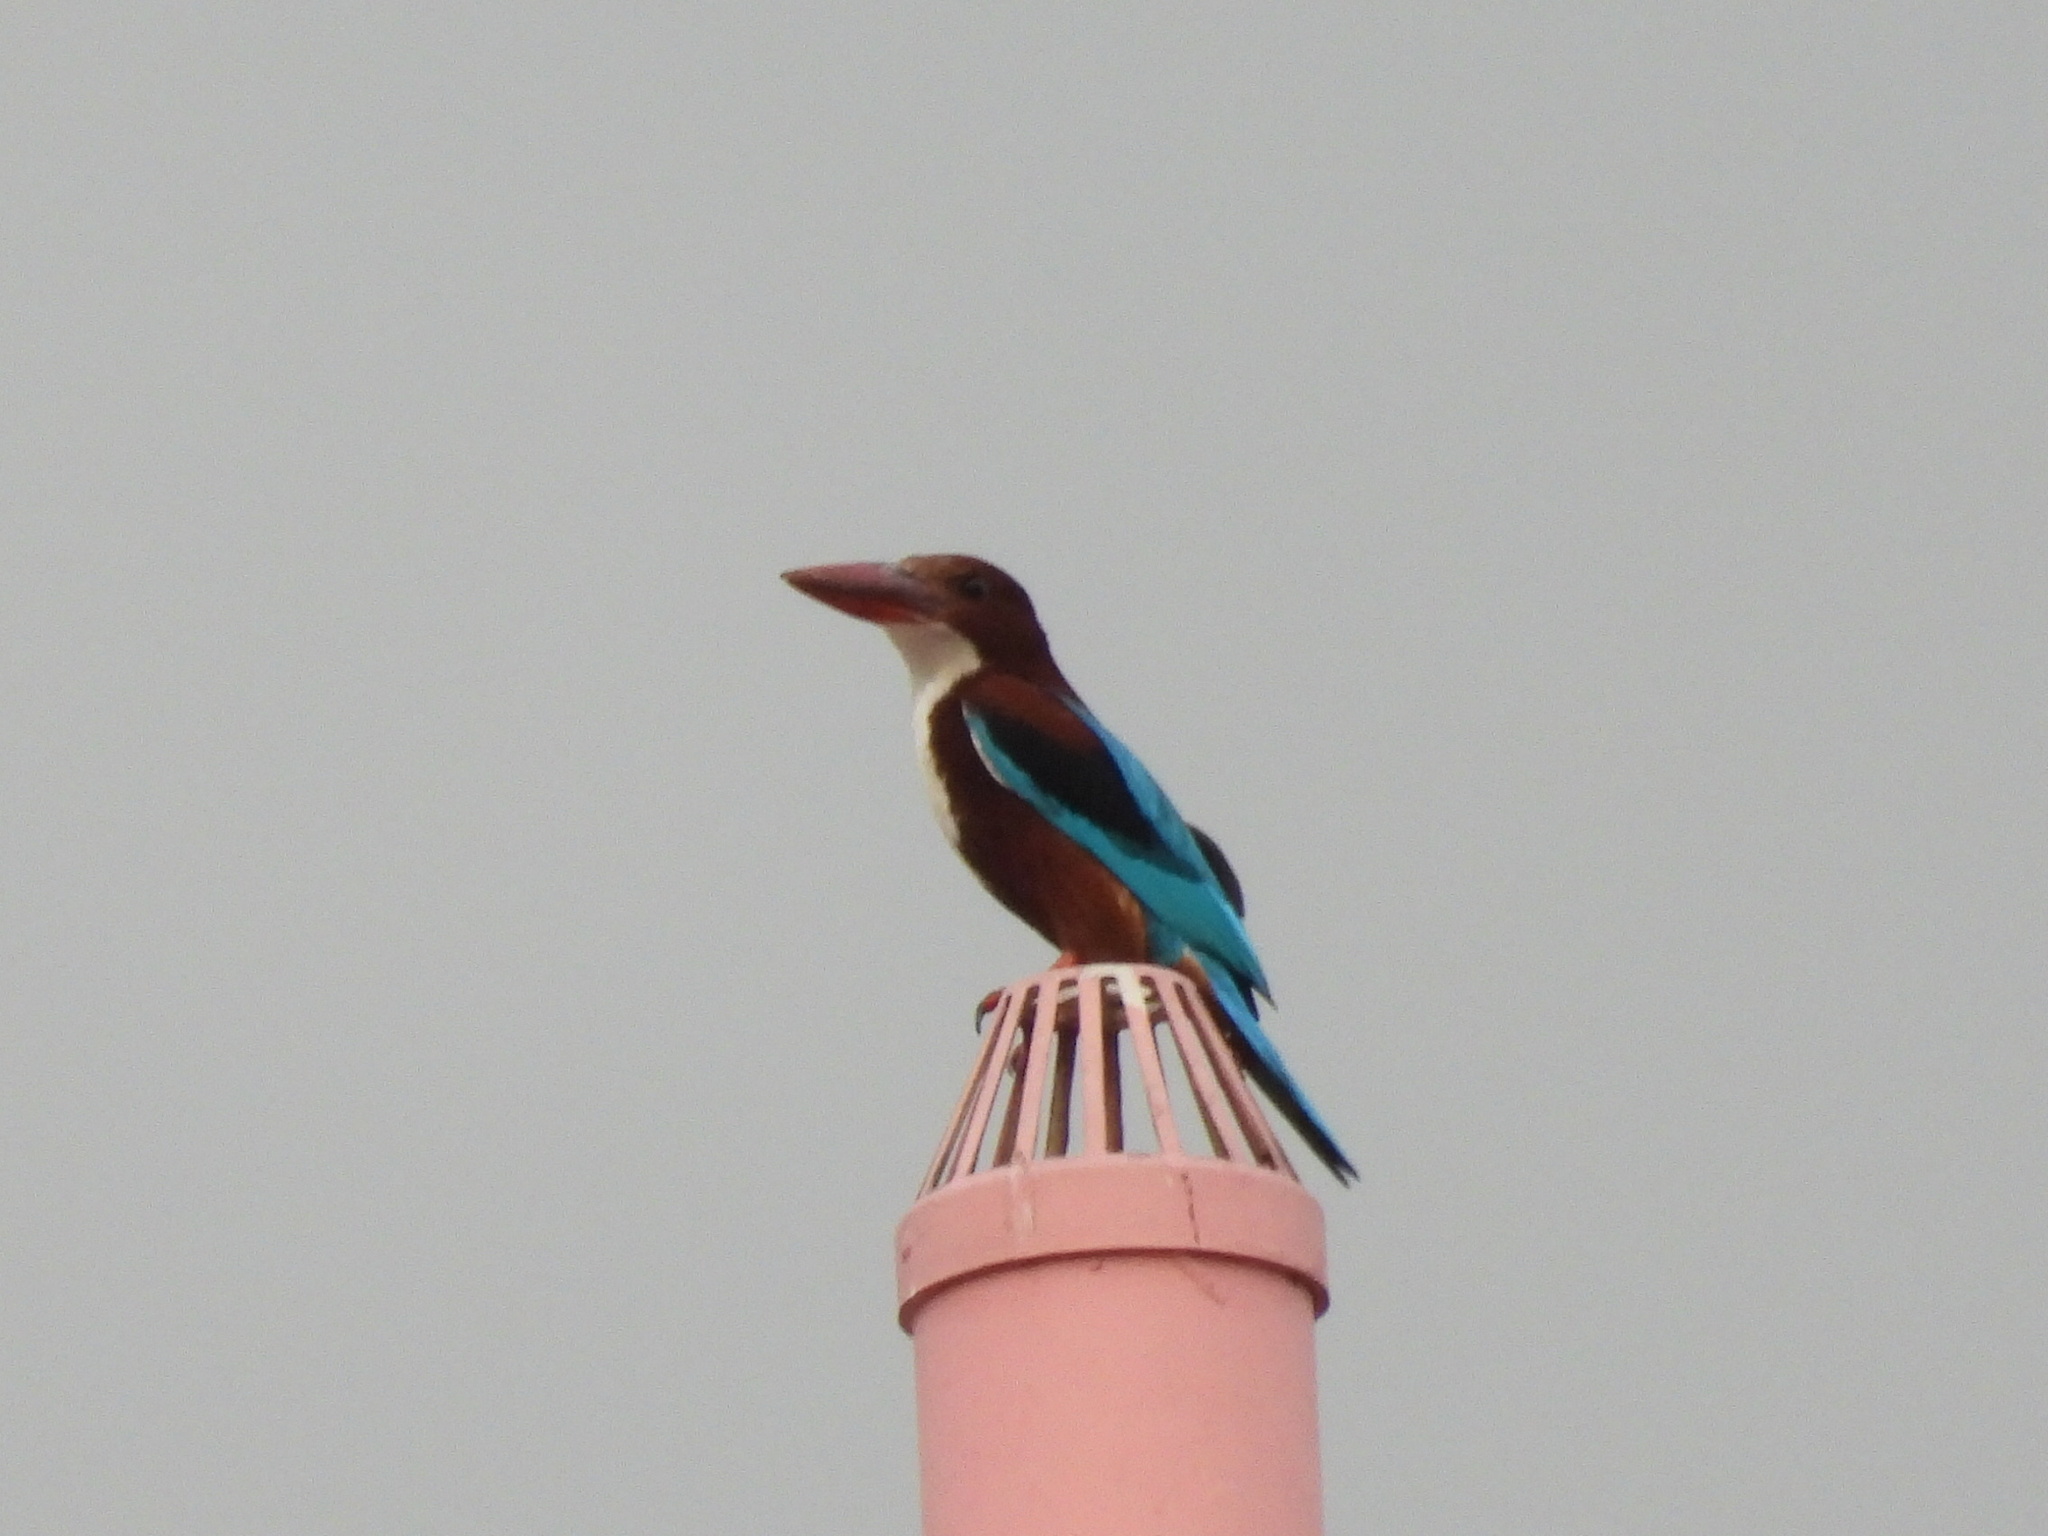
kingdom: Animalia
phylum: Chordata
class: Aves
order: Coraciiformes
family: Alcedinidae
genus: Halcyon
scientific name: Halcyon smyrnensis
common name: White-throated kingfisher
